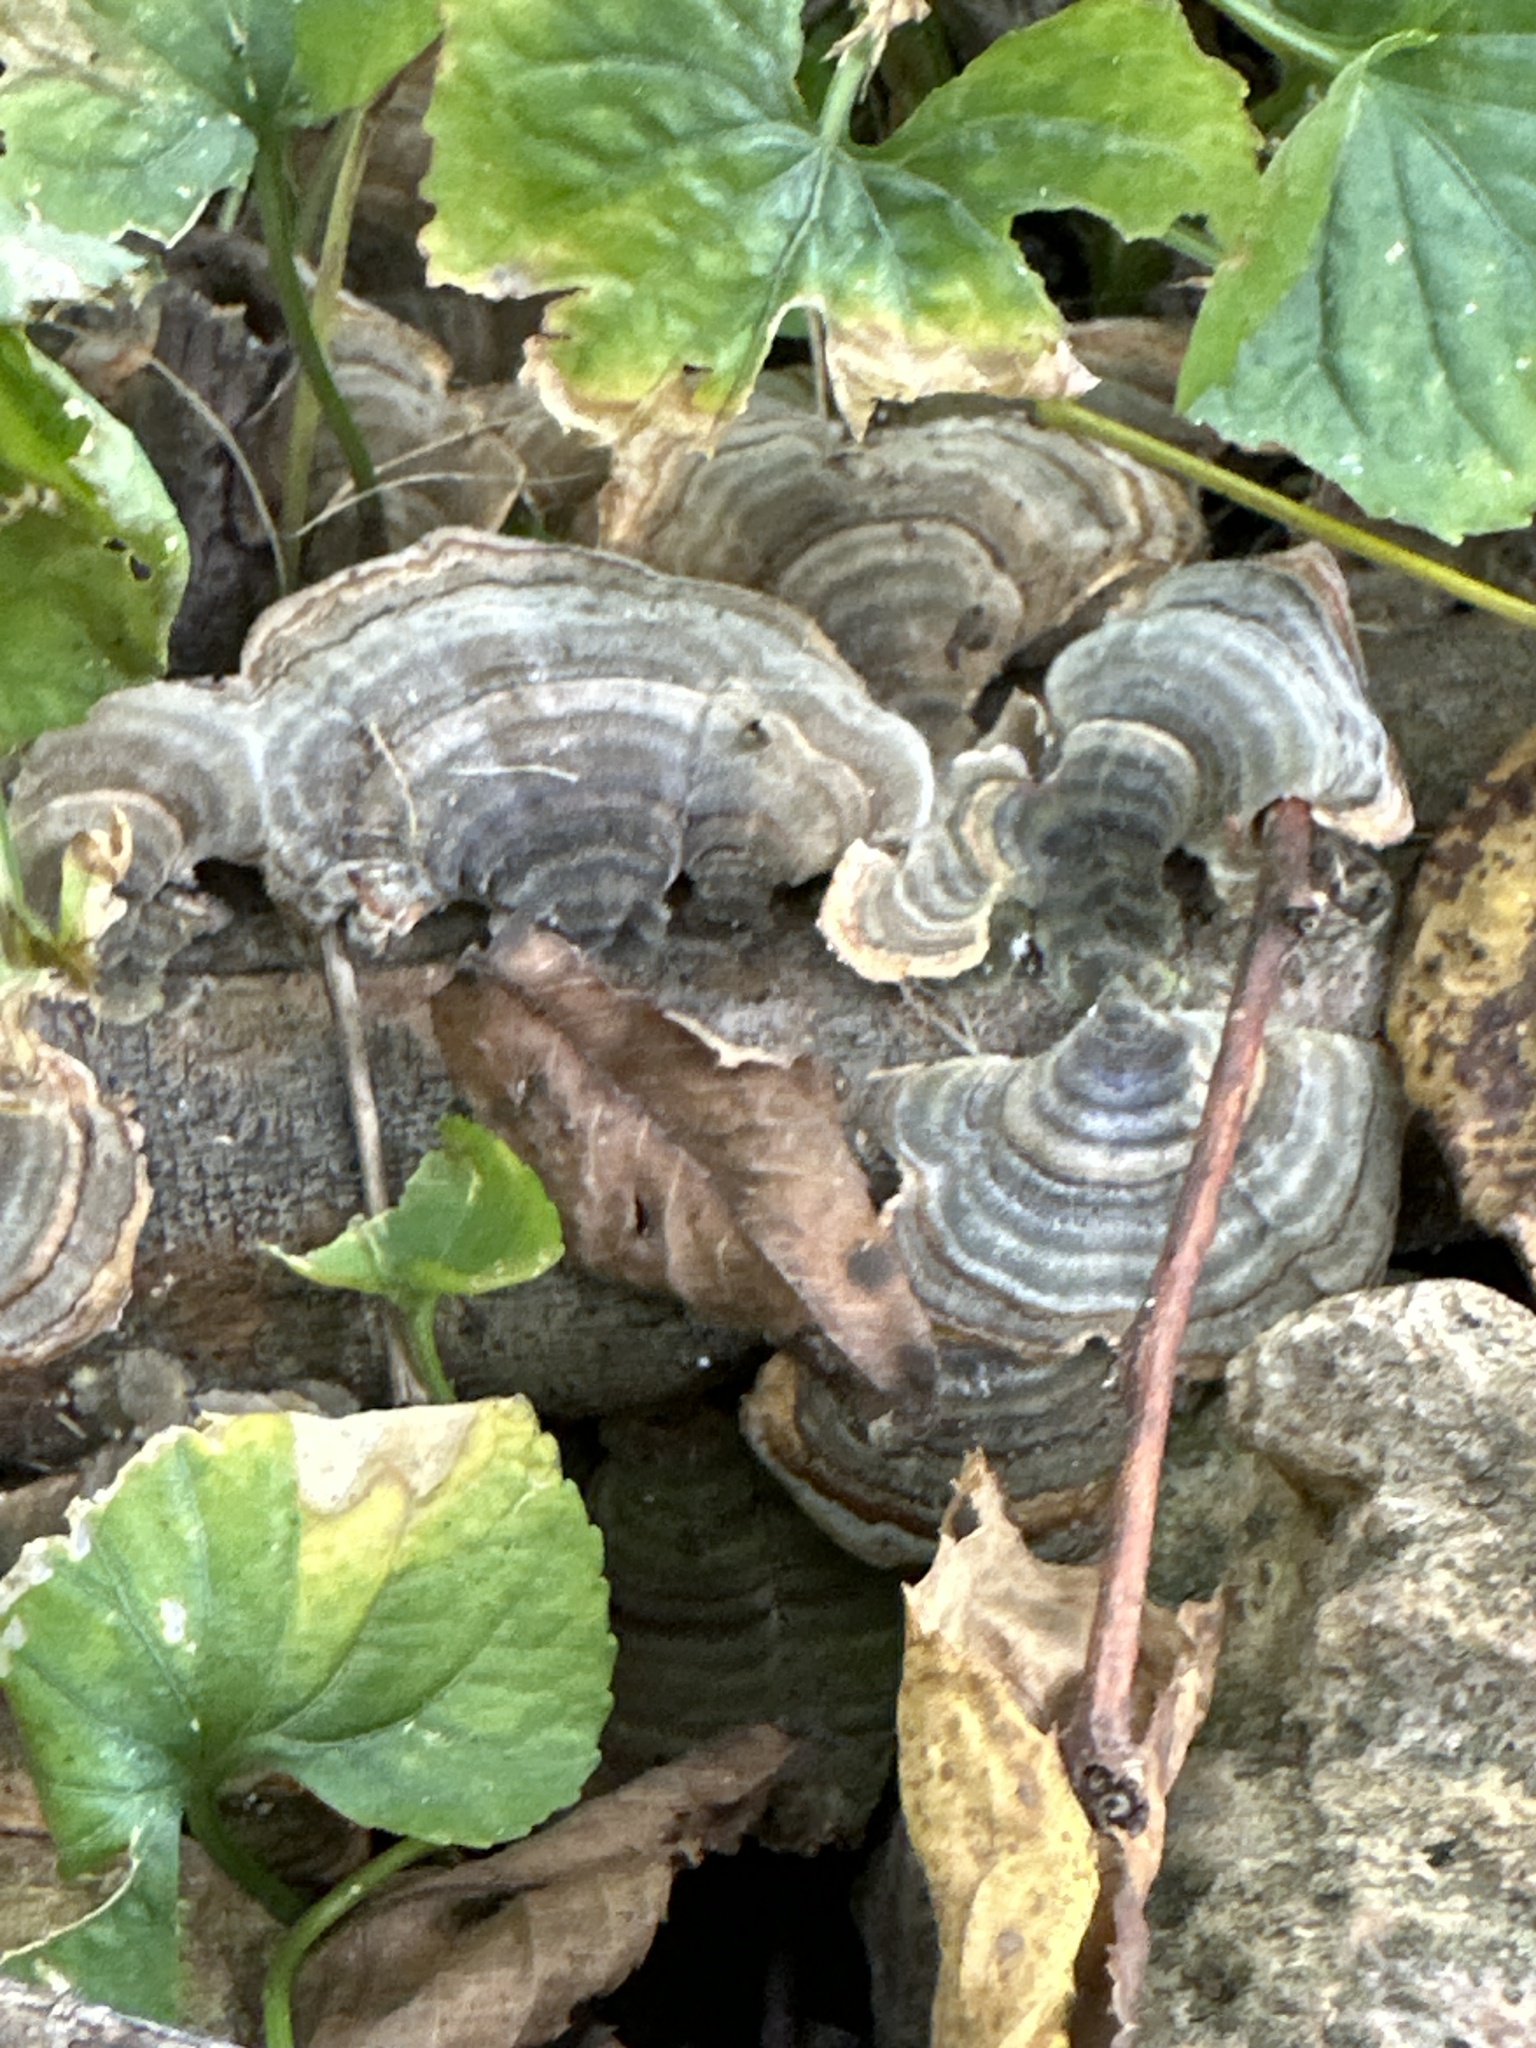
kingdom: Fungi
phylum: Basidiomycota
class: Agaricomycetes
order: Polyporales
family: Polyporaceae
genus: Trametes
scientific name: Trametes versicolor
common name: Turkeytail
